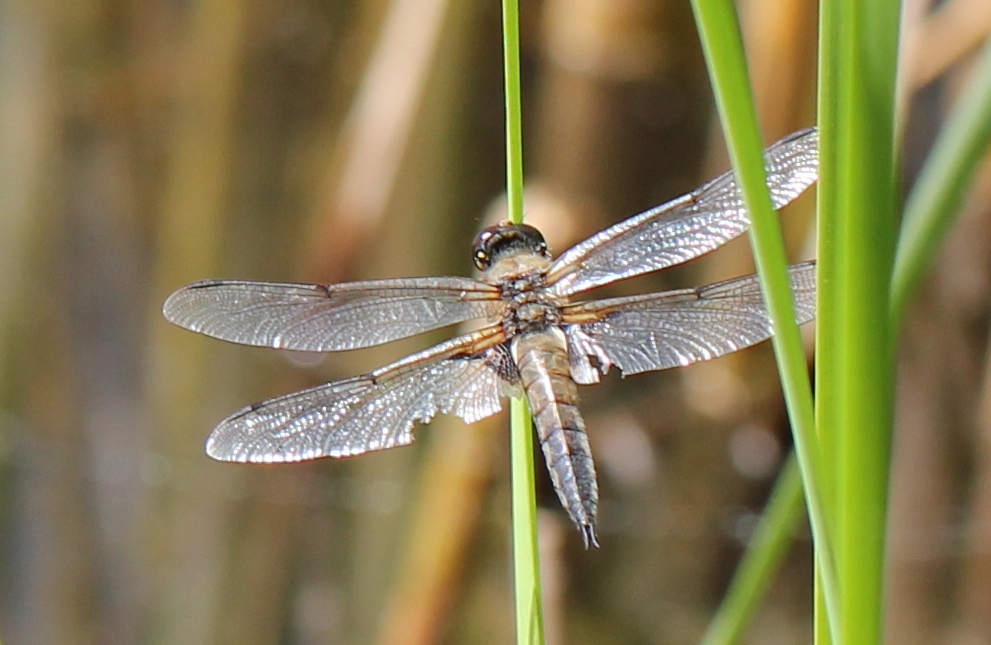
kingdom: Animalia
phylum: Arthropoda
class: Insecta
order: Odonata
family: Libellulidae
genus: Libellula
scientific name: Libellula quadrimaculata
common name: Four-spotted chaser
